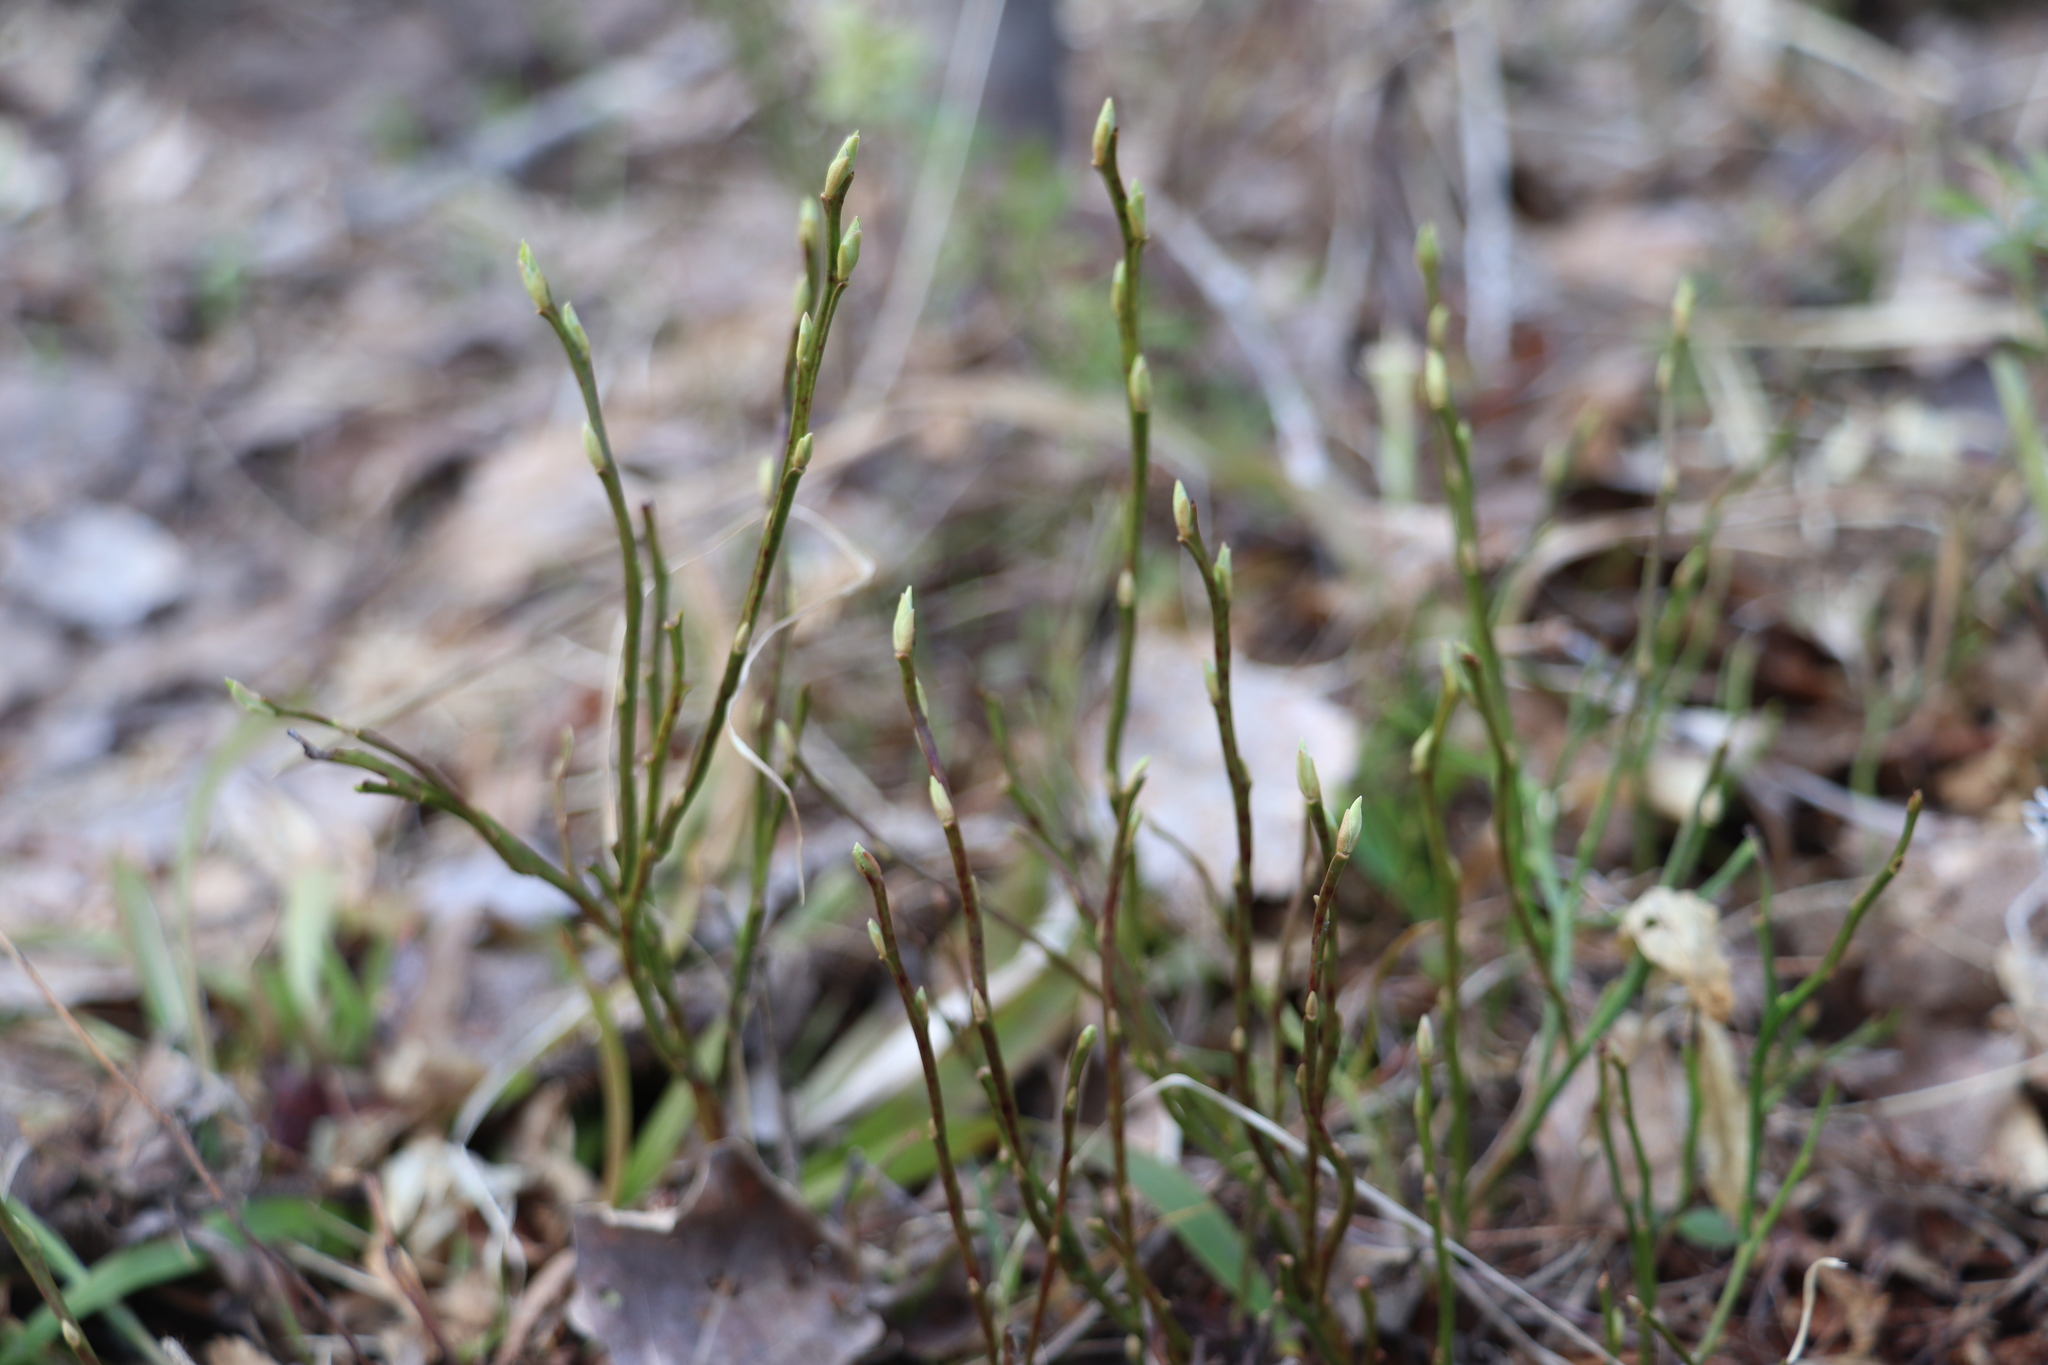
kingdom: Plantae
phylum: Tracheophyta
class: Magnoliopsida
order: Ericales
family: Ericaceae
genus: Vaccinium
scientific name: Vaccinium myrtillus
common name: Bilberry
